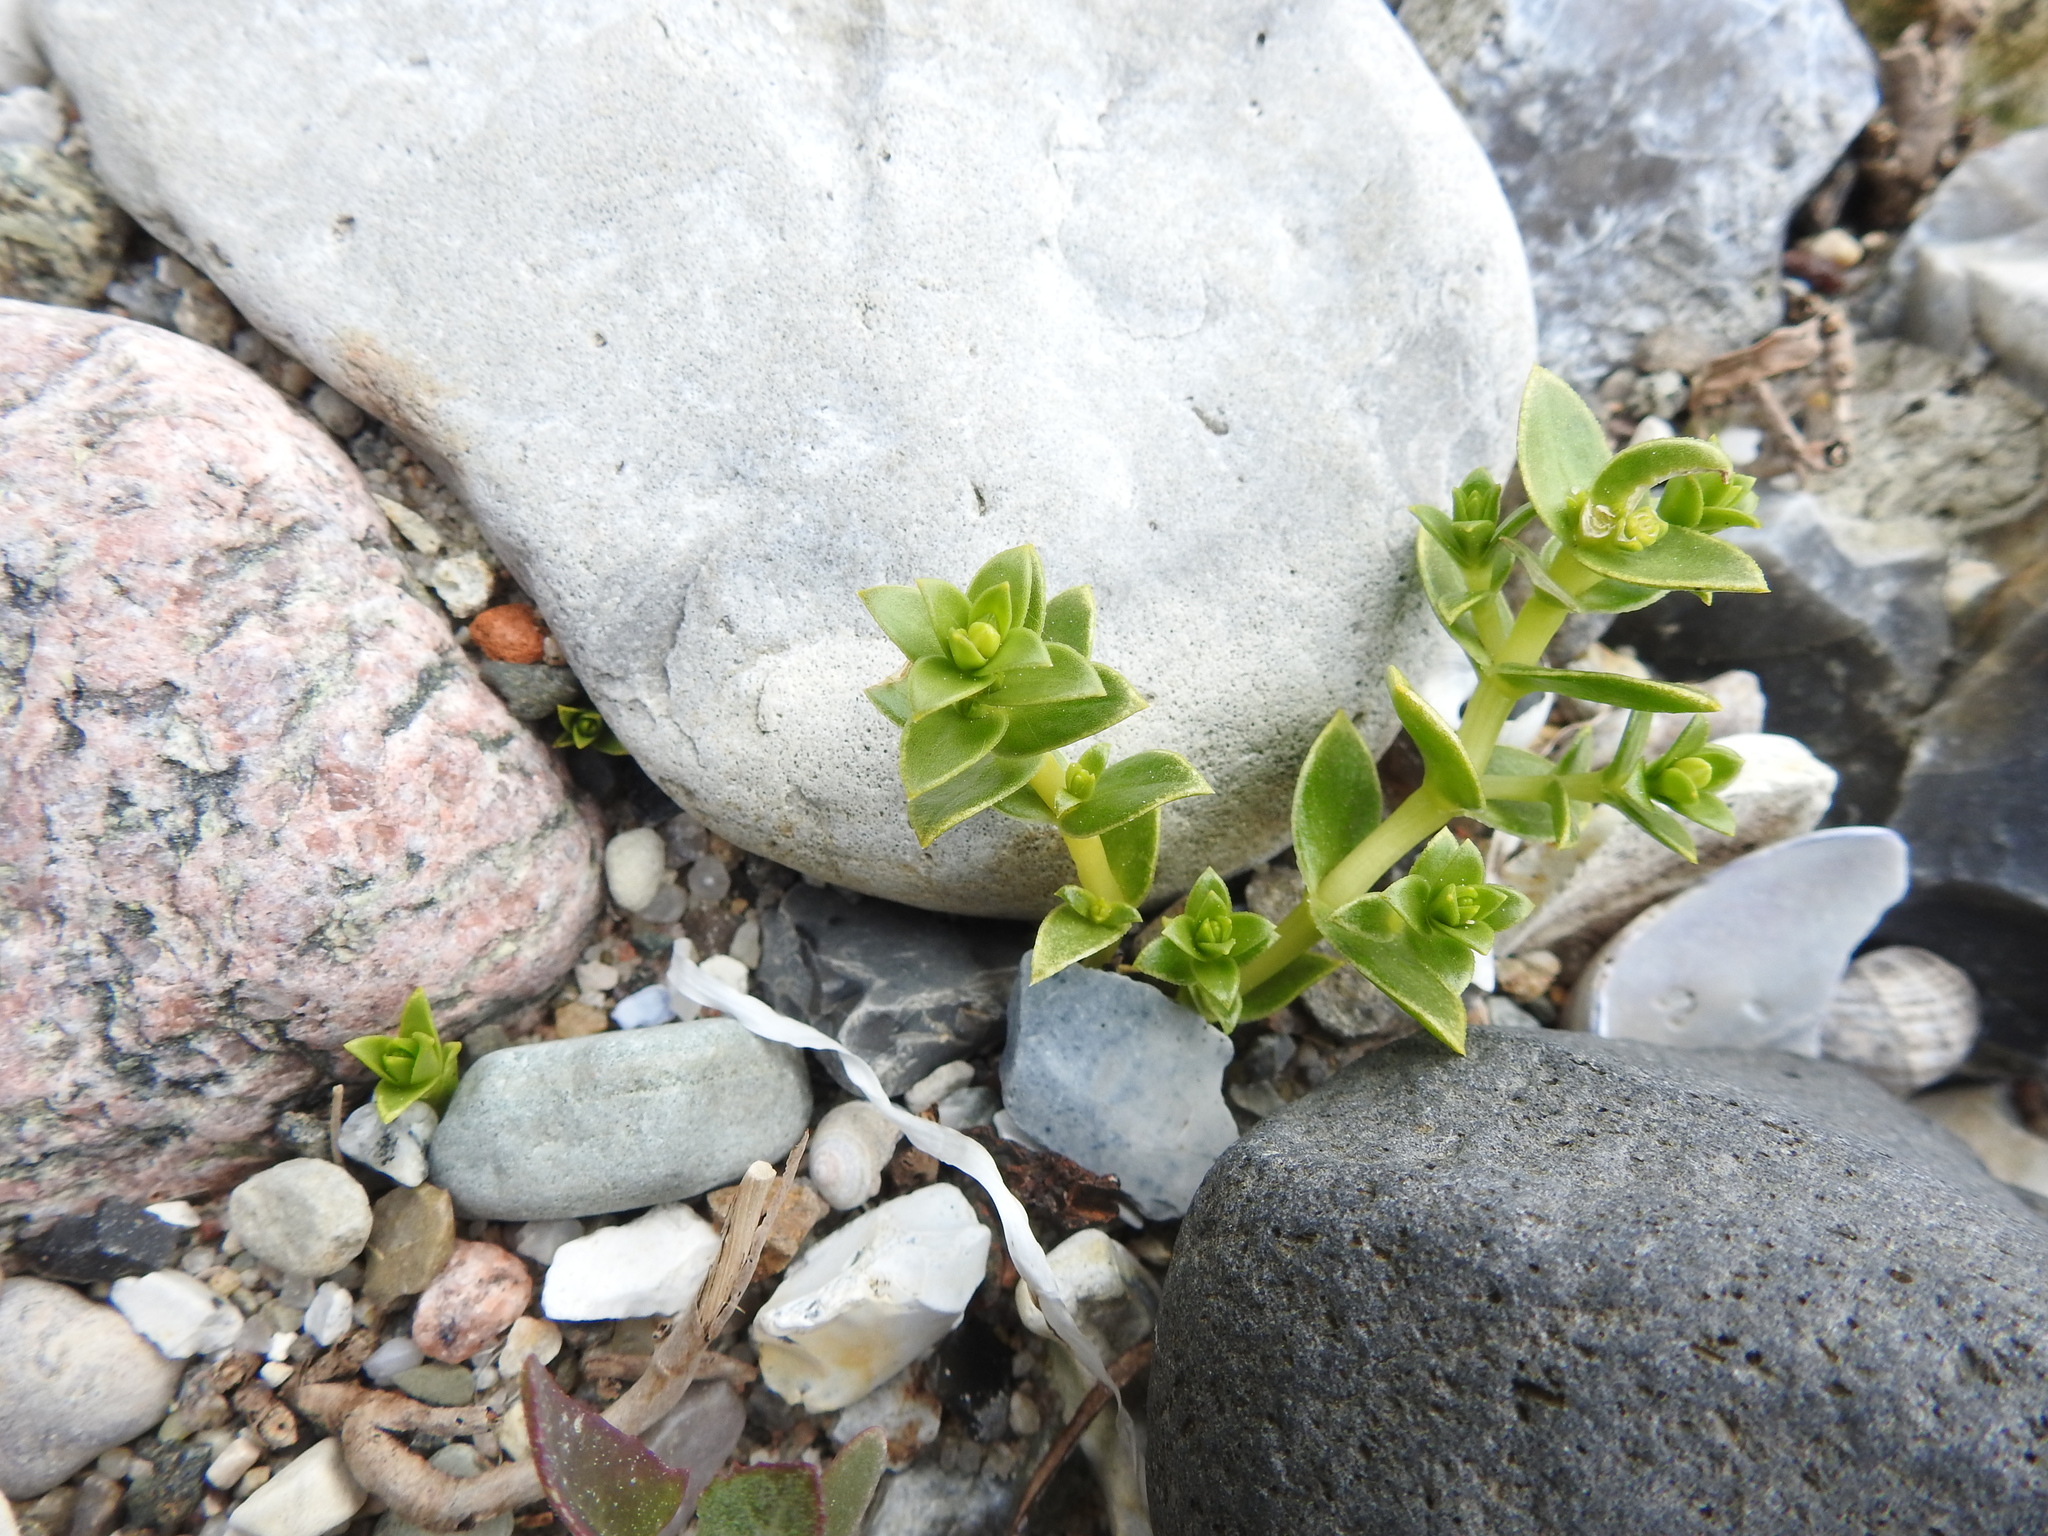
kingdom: Plantae
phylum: Tracheophyta
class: Magnoliopsida
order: Caryophyllales
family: Caryophyllaceae
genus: Honckenya
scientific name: Honckenya peploides
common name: Sea sandwort
